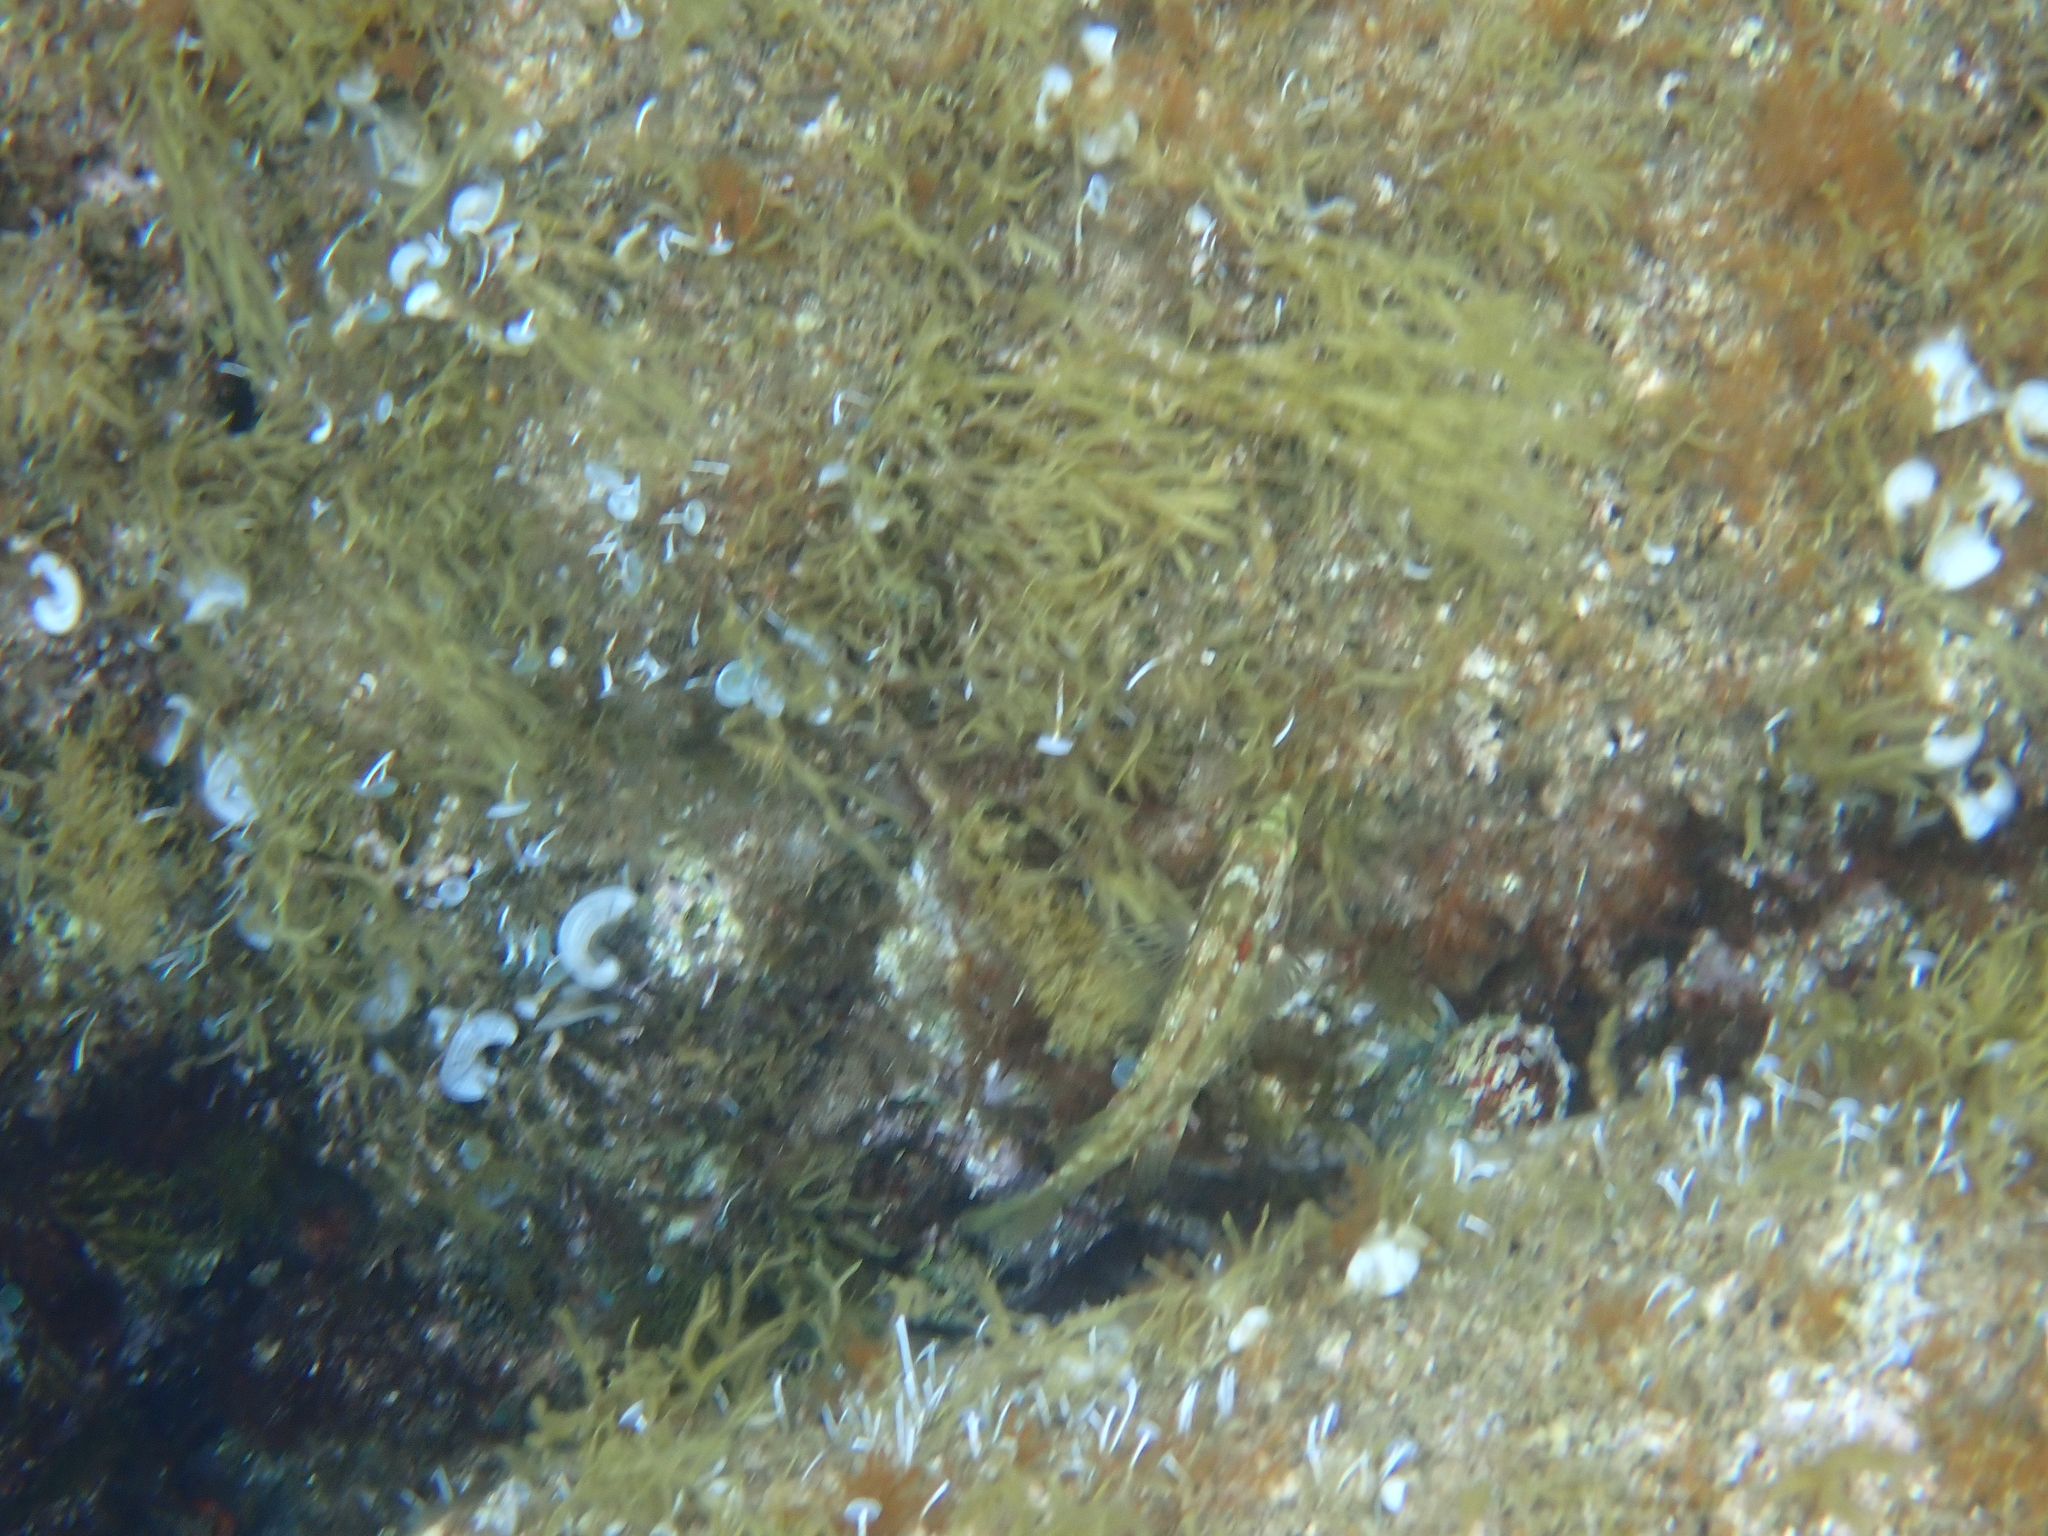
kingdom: Animalia
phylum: Chordata
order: Perciformes
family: Labridae
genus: Symphodus
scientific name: Symphodus roissali
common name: Five-spotted wrasse
